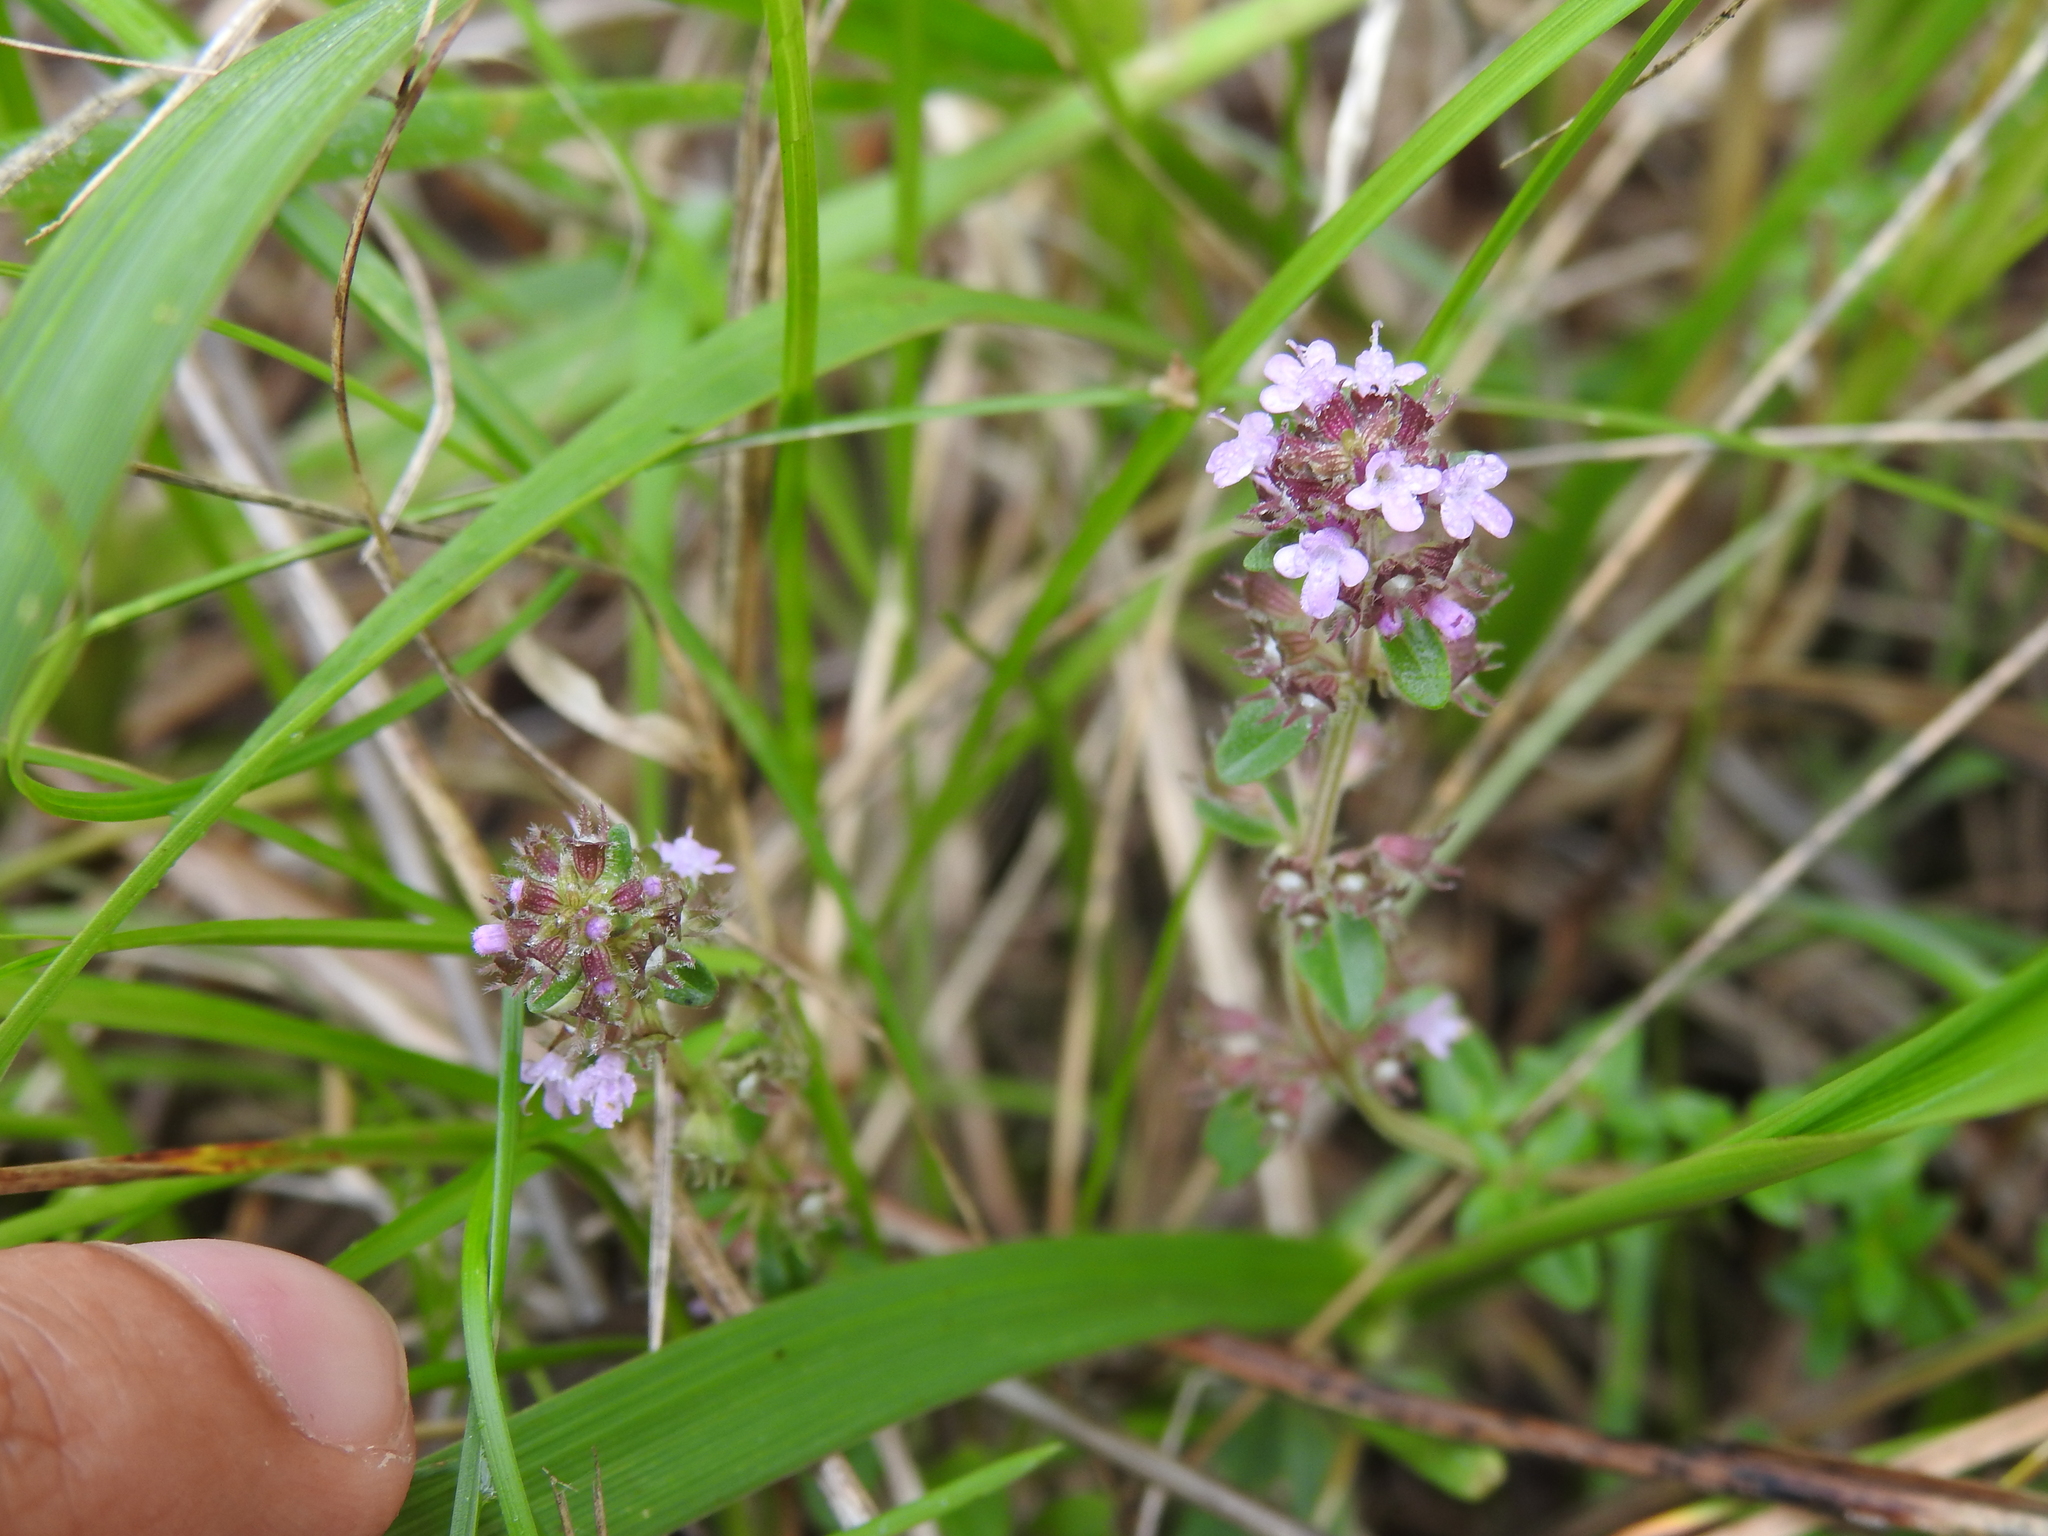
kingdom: Plantae
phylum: Tracheophyta
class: Magnoliopsida
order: Lamiales
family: Lamiaceae
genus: Thymus
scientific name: Thymus pulegioides
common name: Large thyme
